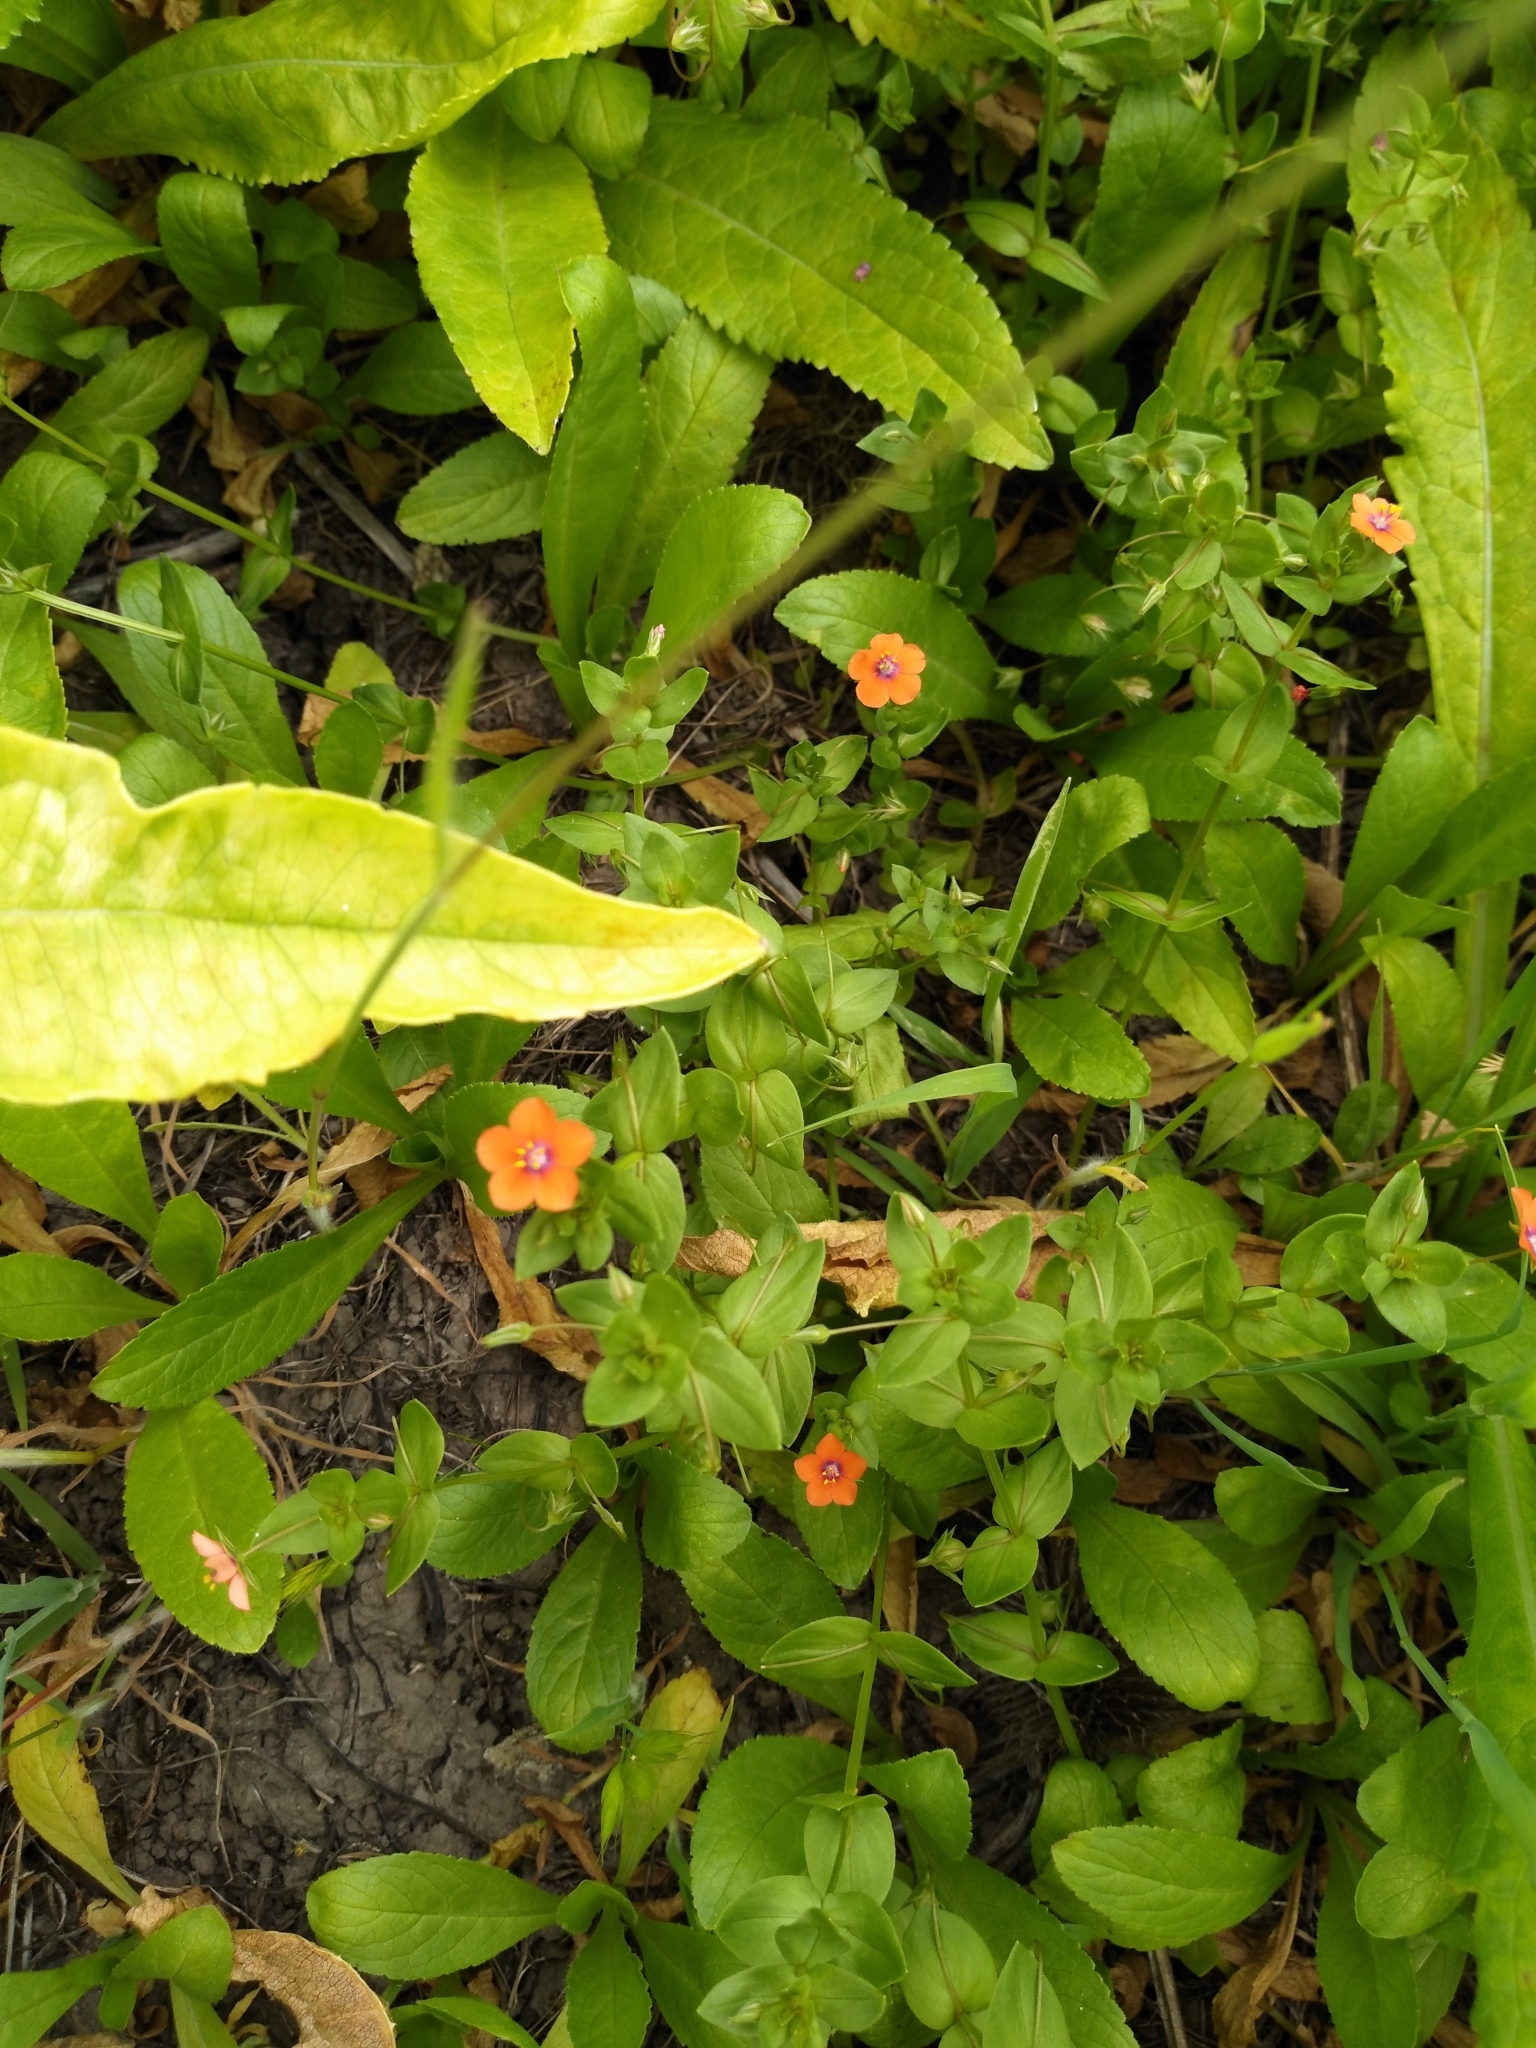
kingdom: Plantae
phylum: Tracheophyta
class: Magnoliopsida
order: Ericales
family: Primulaceae
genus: Lysimachia
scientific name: Lysimachia arvensis
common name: Scarlet pimpernel
